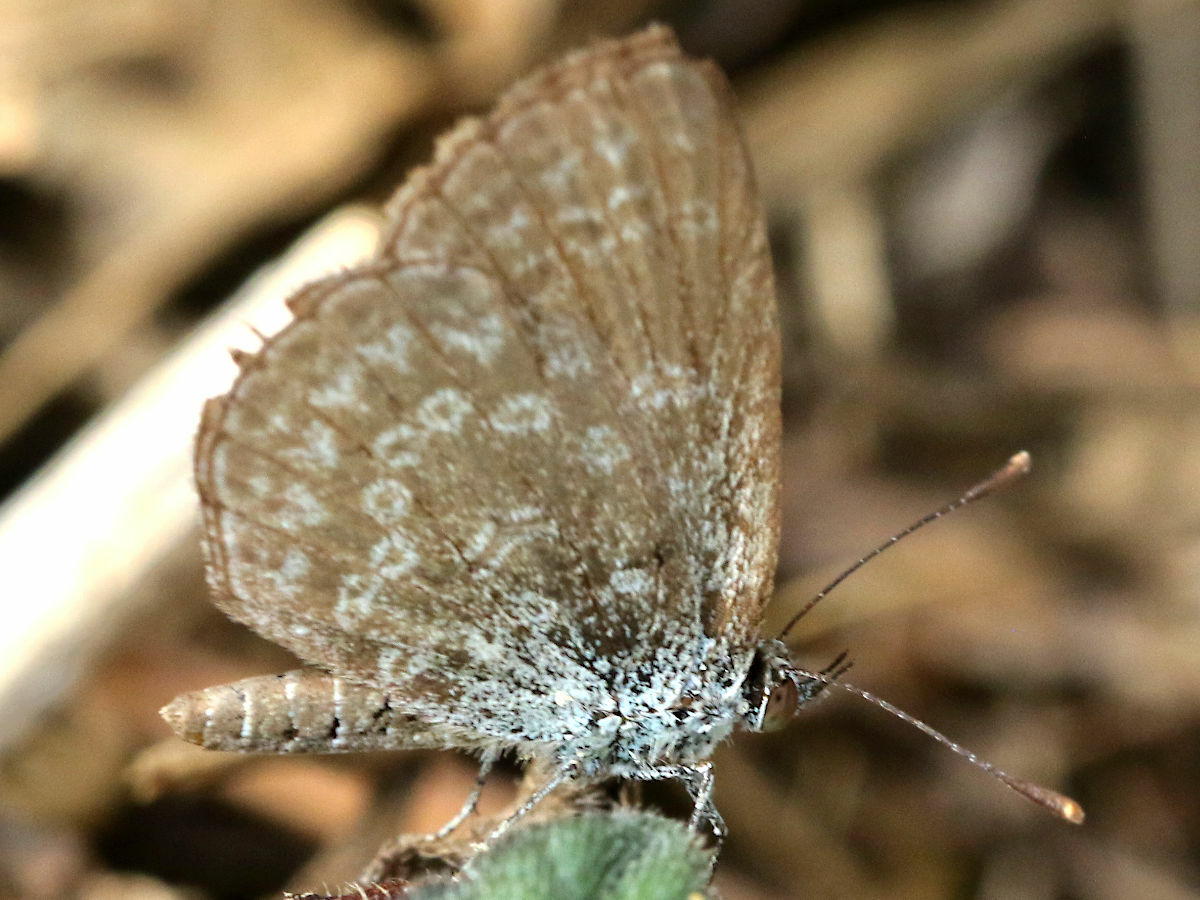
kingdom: Animalia
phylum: Arthropoda
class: Insecta
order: Lepidoptera
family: Lycaenidae
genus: Pseudozizeeria
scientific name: Pseudozizeeria maha
